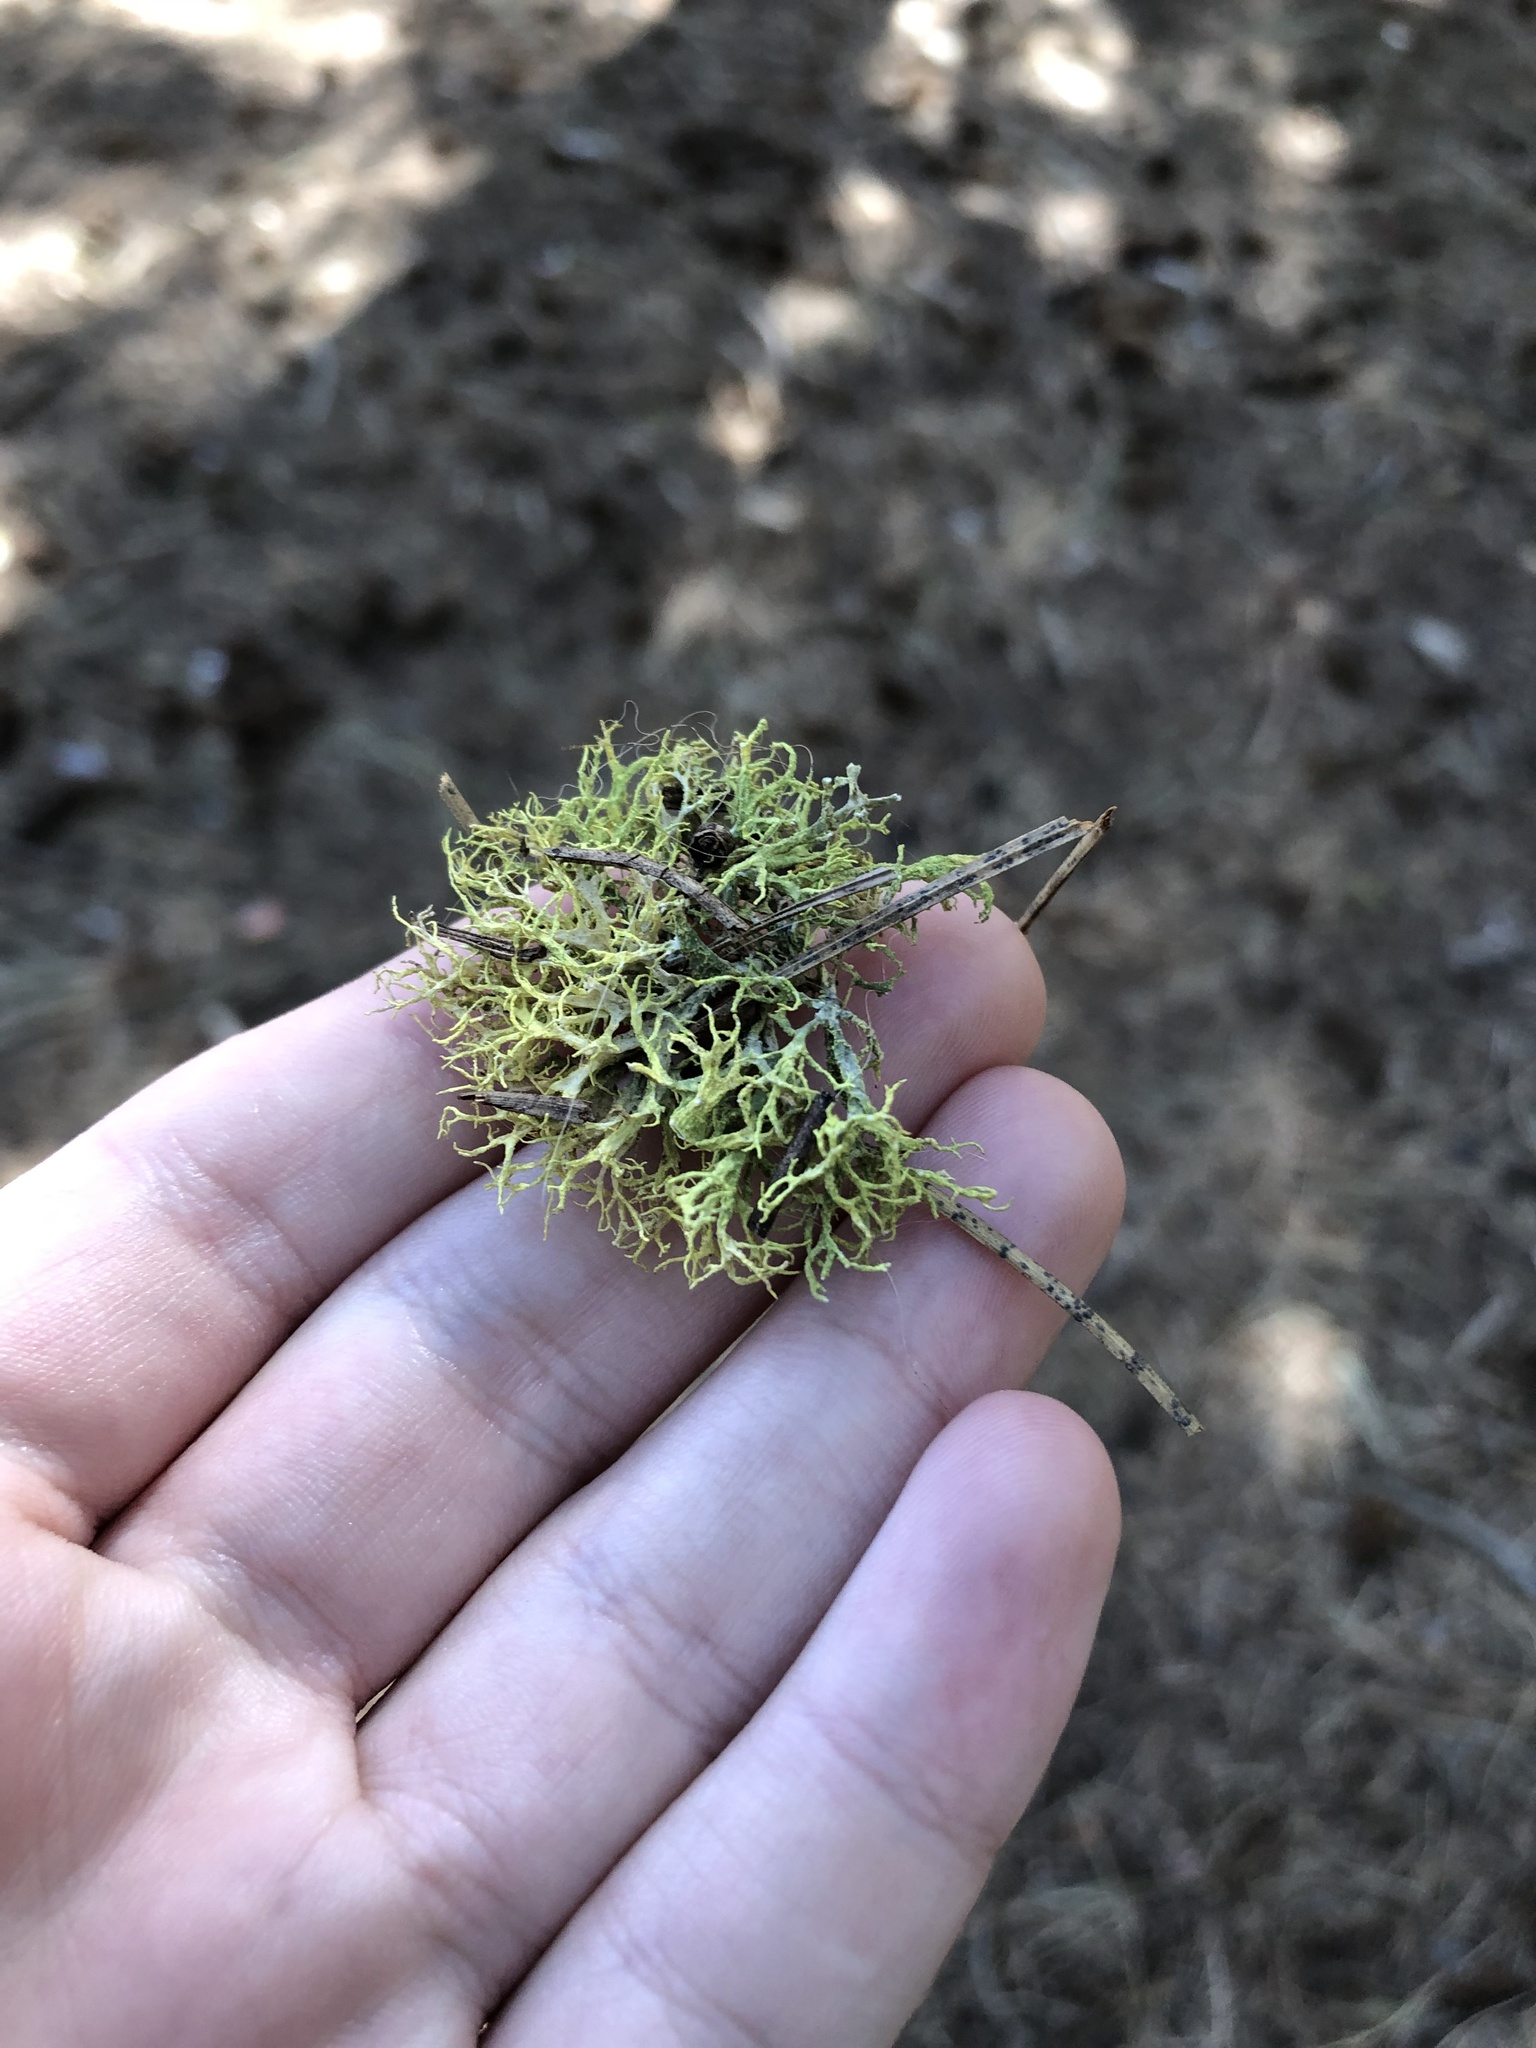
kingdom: Fungi
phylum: Ascomycota
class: Lecanoromycetes
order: Lecanorales
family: Parmeliaceae
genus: Letharia
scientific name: Letharia vulpina
